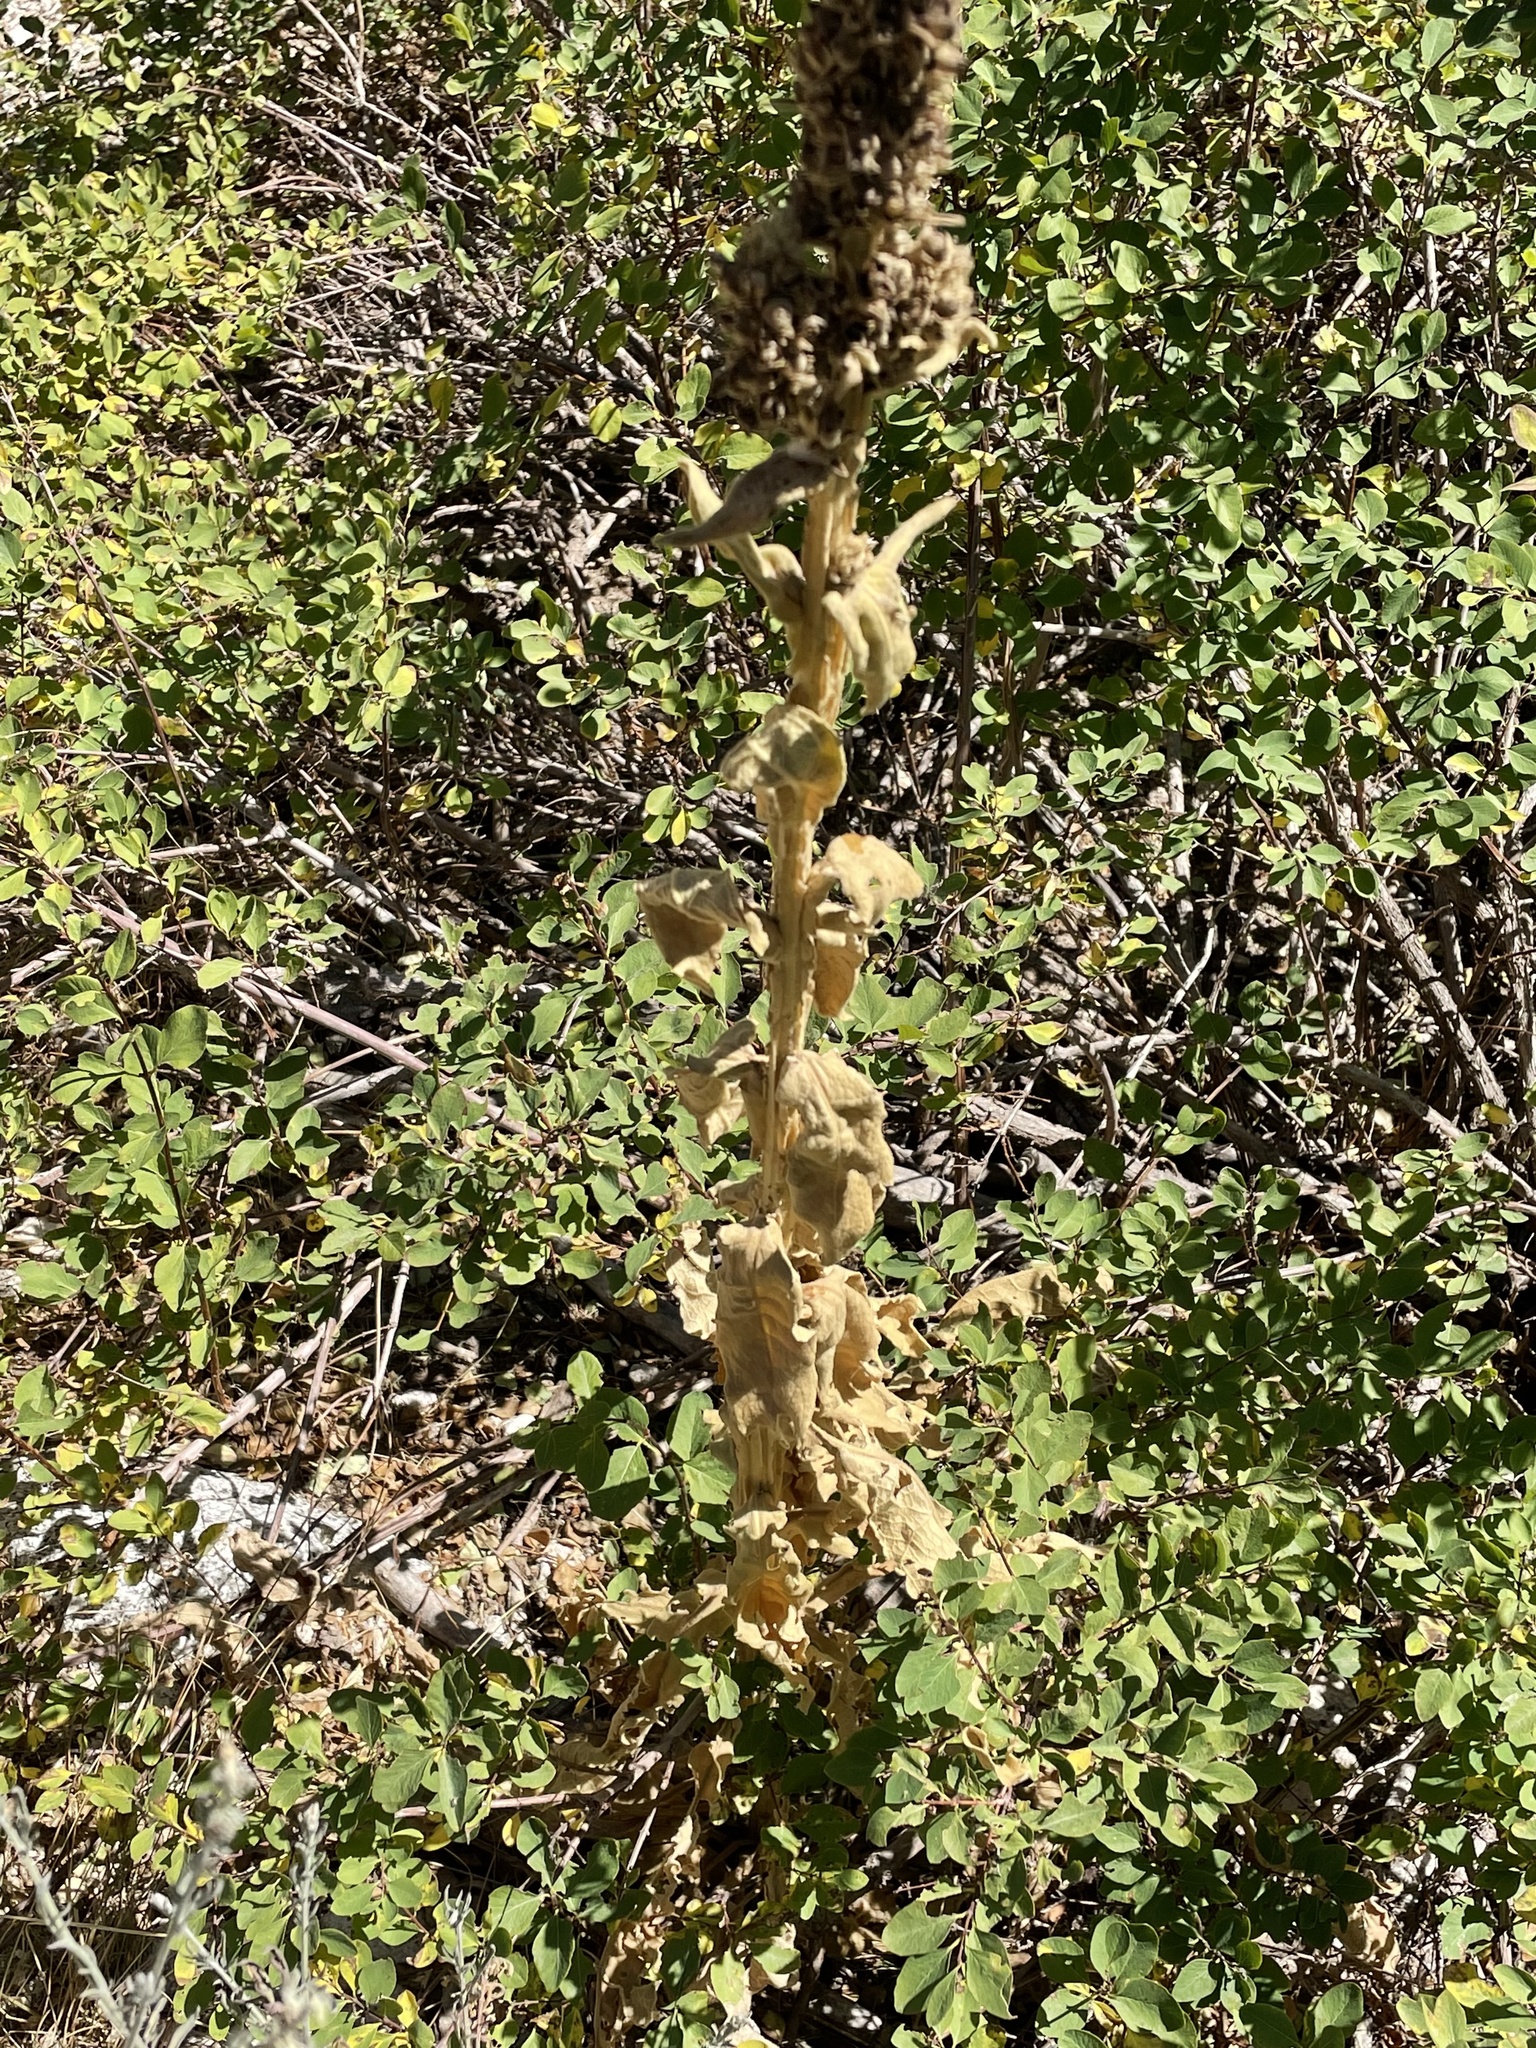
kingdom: Plantae
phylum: Tracheophyta
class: Magnoliopsida
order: Lamiales
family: Scrophulariaceae
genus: Verbascum
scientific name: Verbascum thapsus
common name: Common mullein
